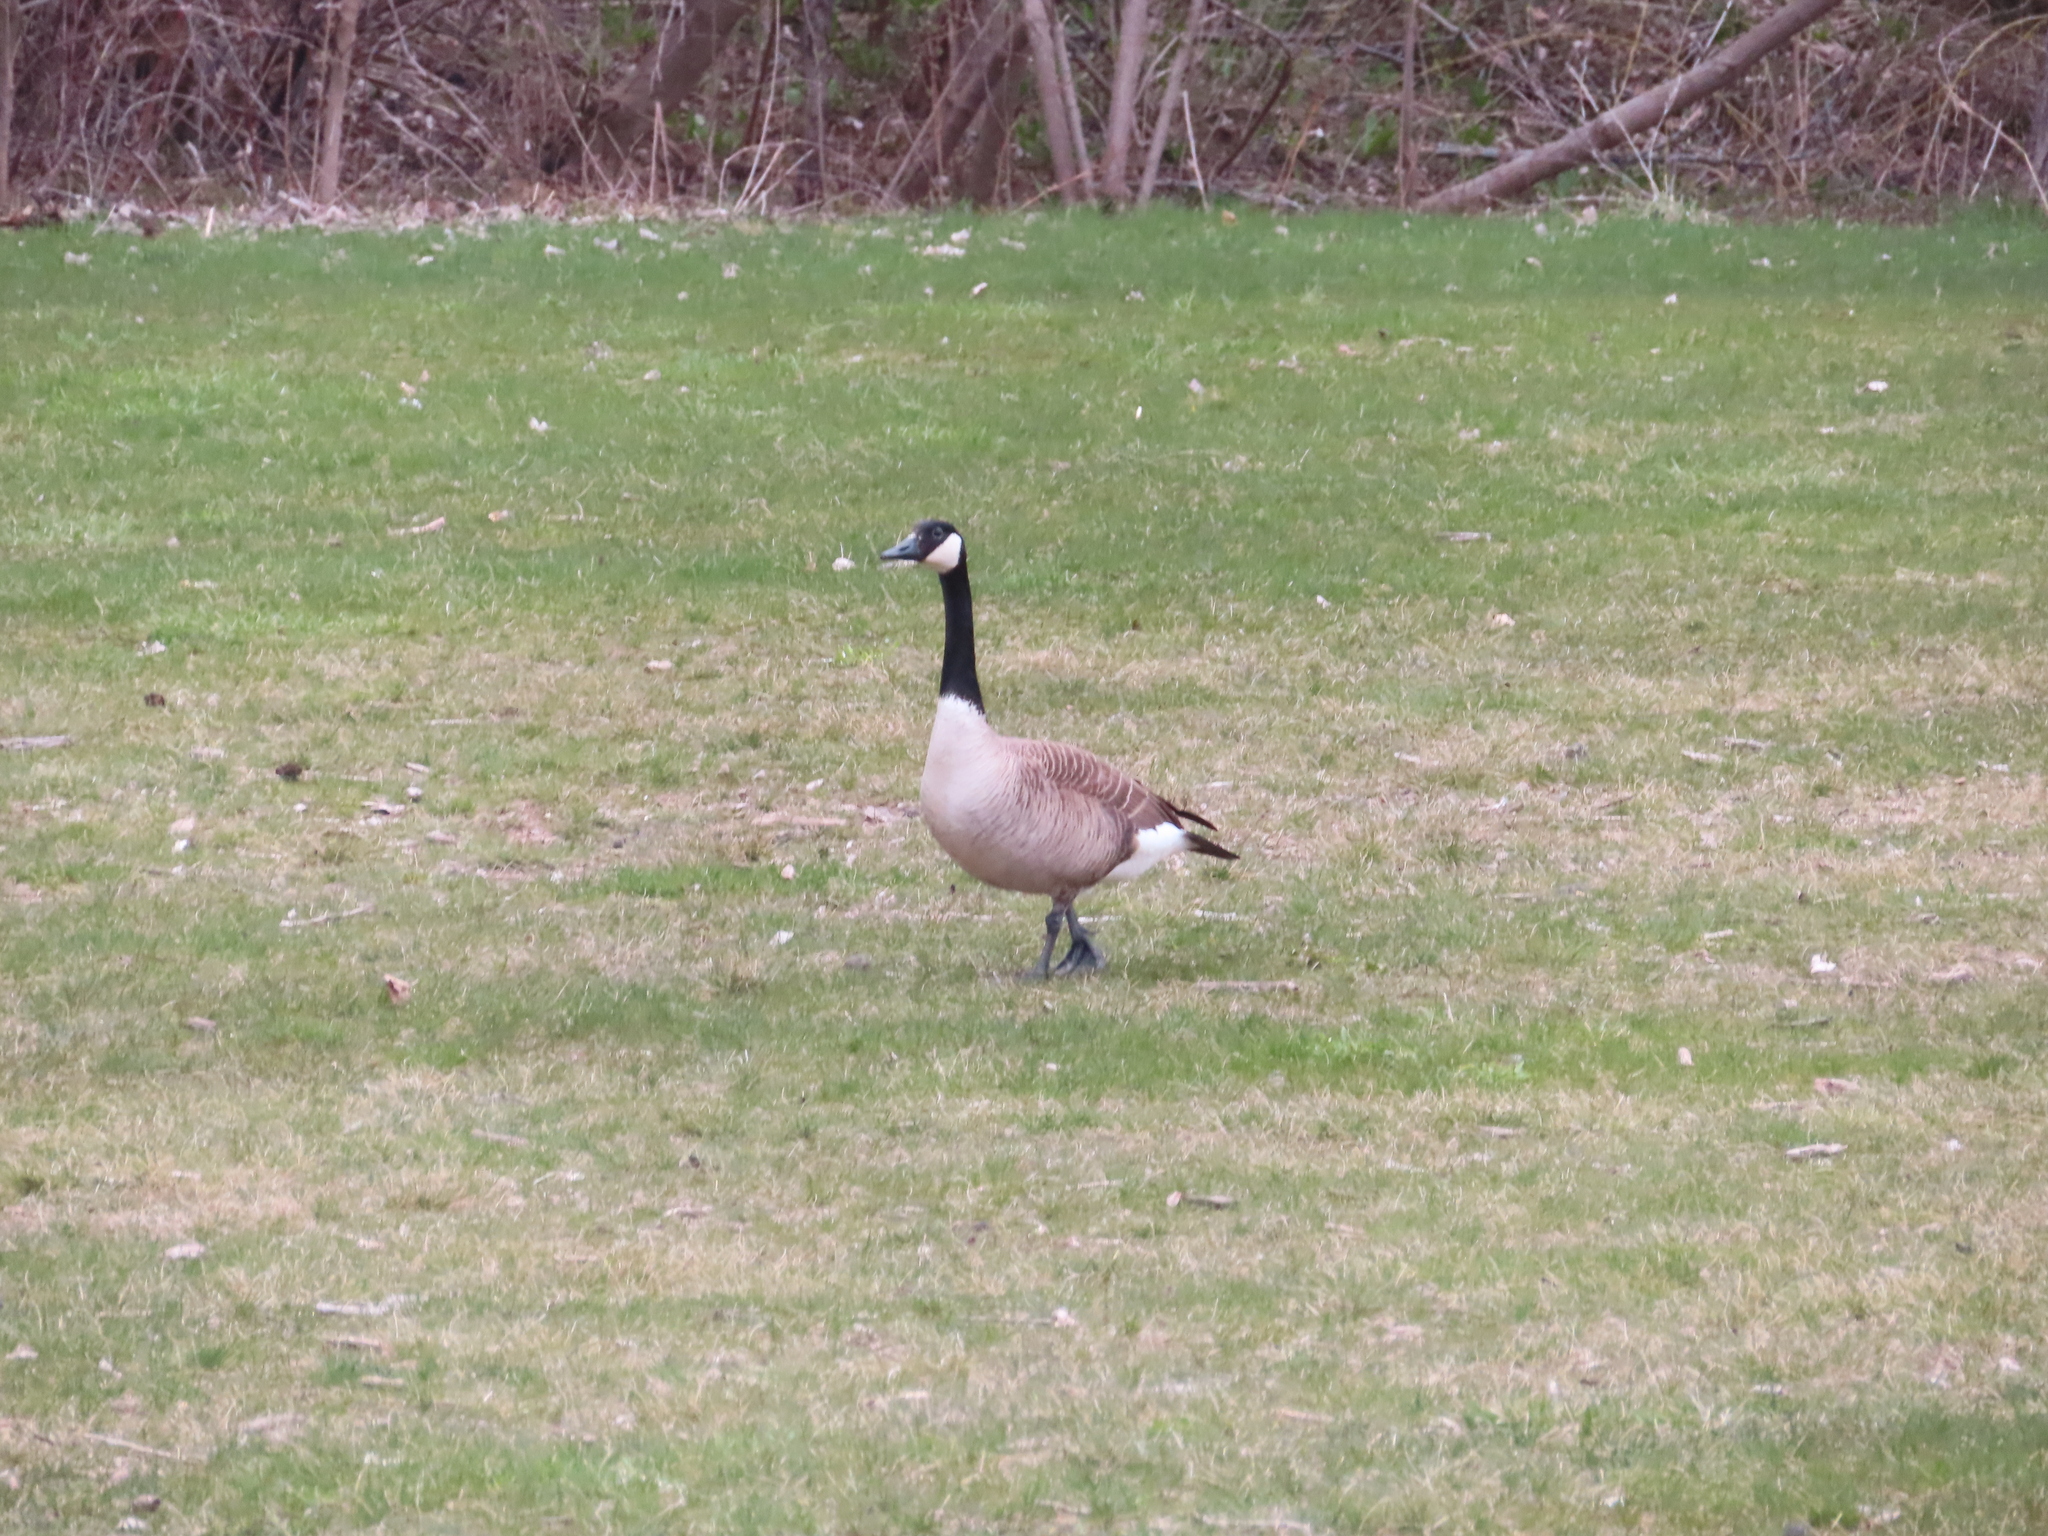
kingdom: Animalia
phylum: Chordata
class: Aves
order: Anseriformes
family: Anatidae
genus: Branta
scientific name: Branta canadensis
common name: Canada goose
